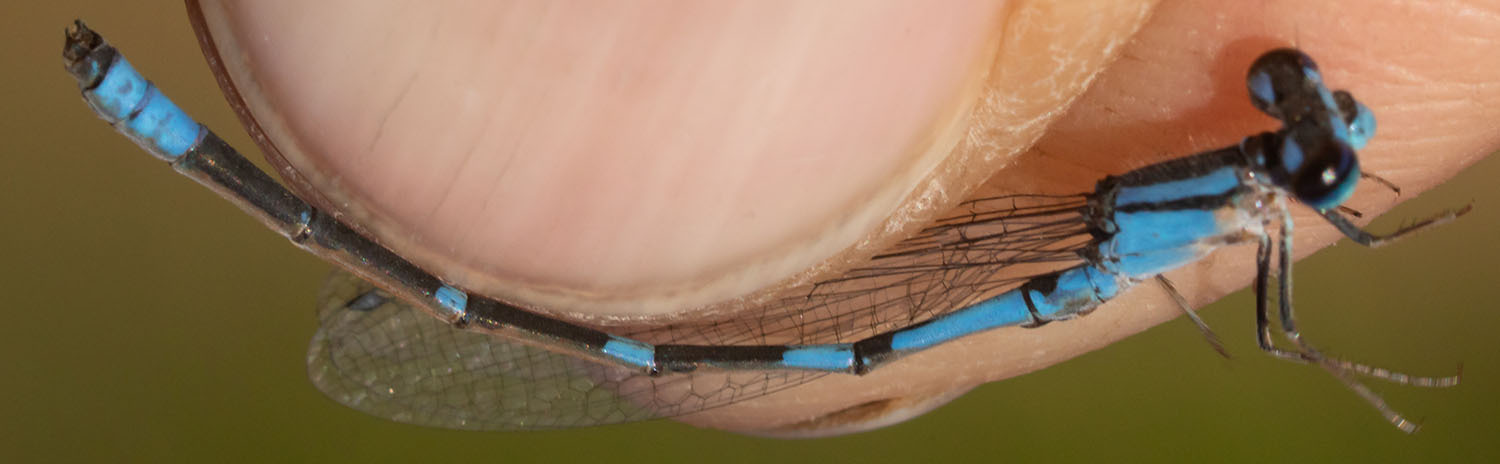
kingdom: Animalia
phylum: Arthropoda
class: Insecta
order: Odonata
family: Coenagrionidae
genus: Enallagma
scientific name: Enallagma praevarum
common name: Arroyo bluet
